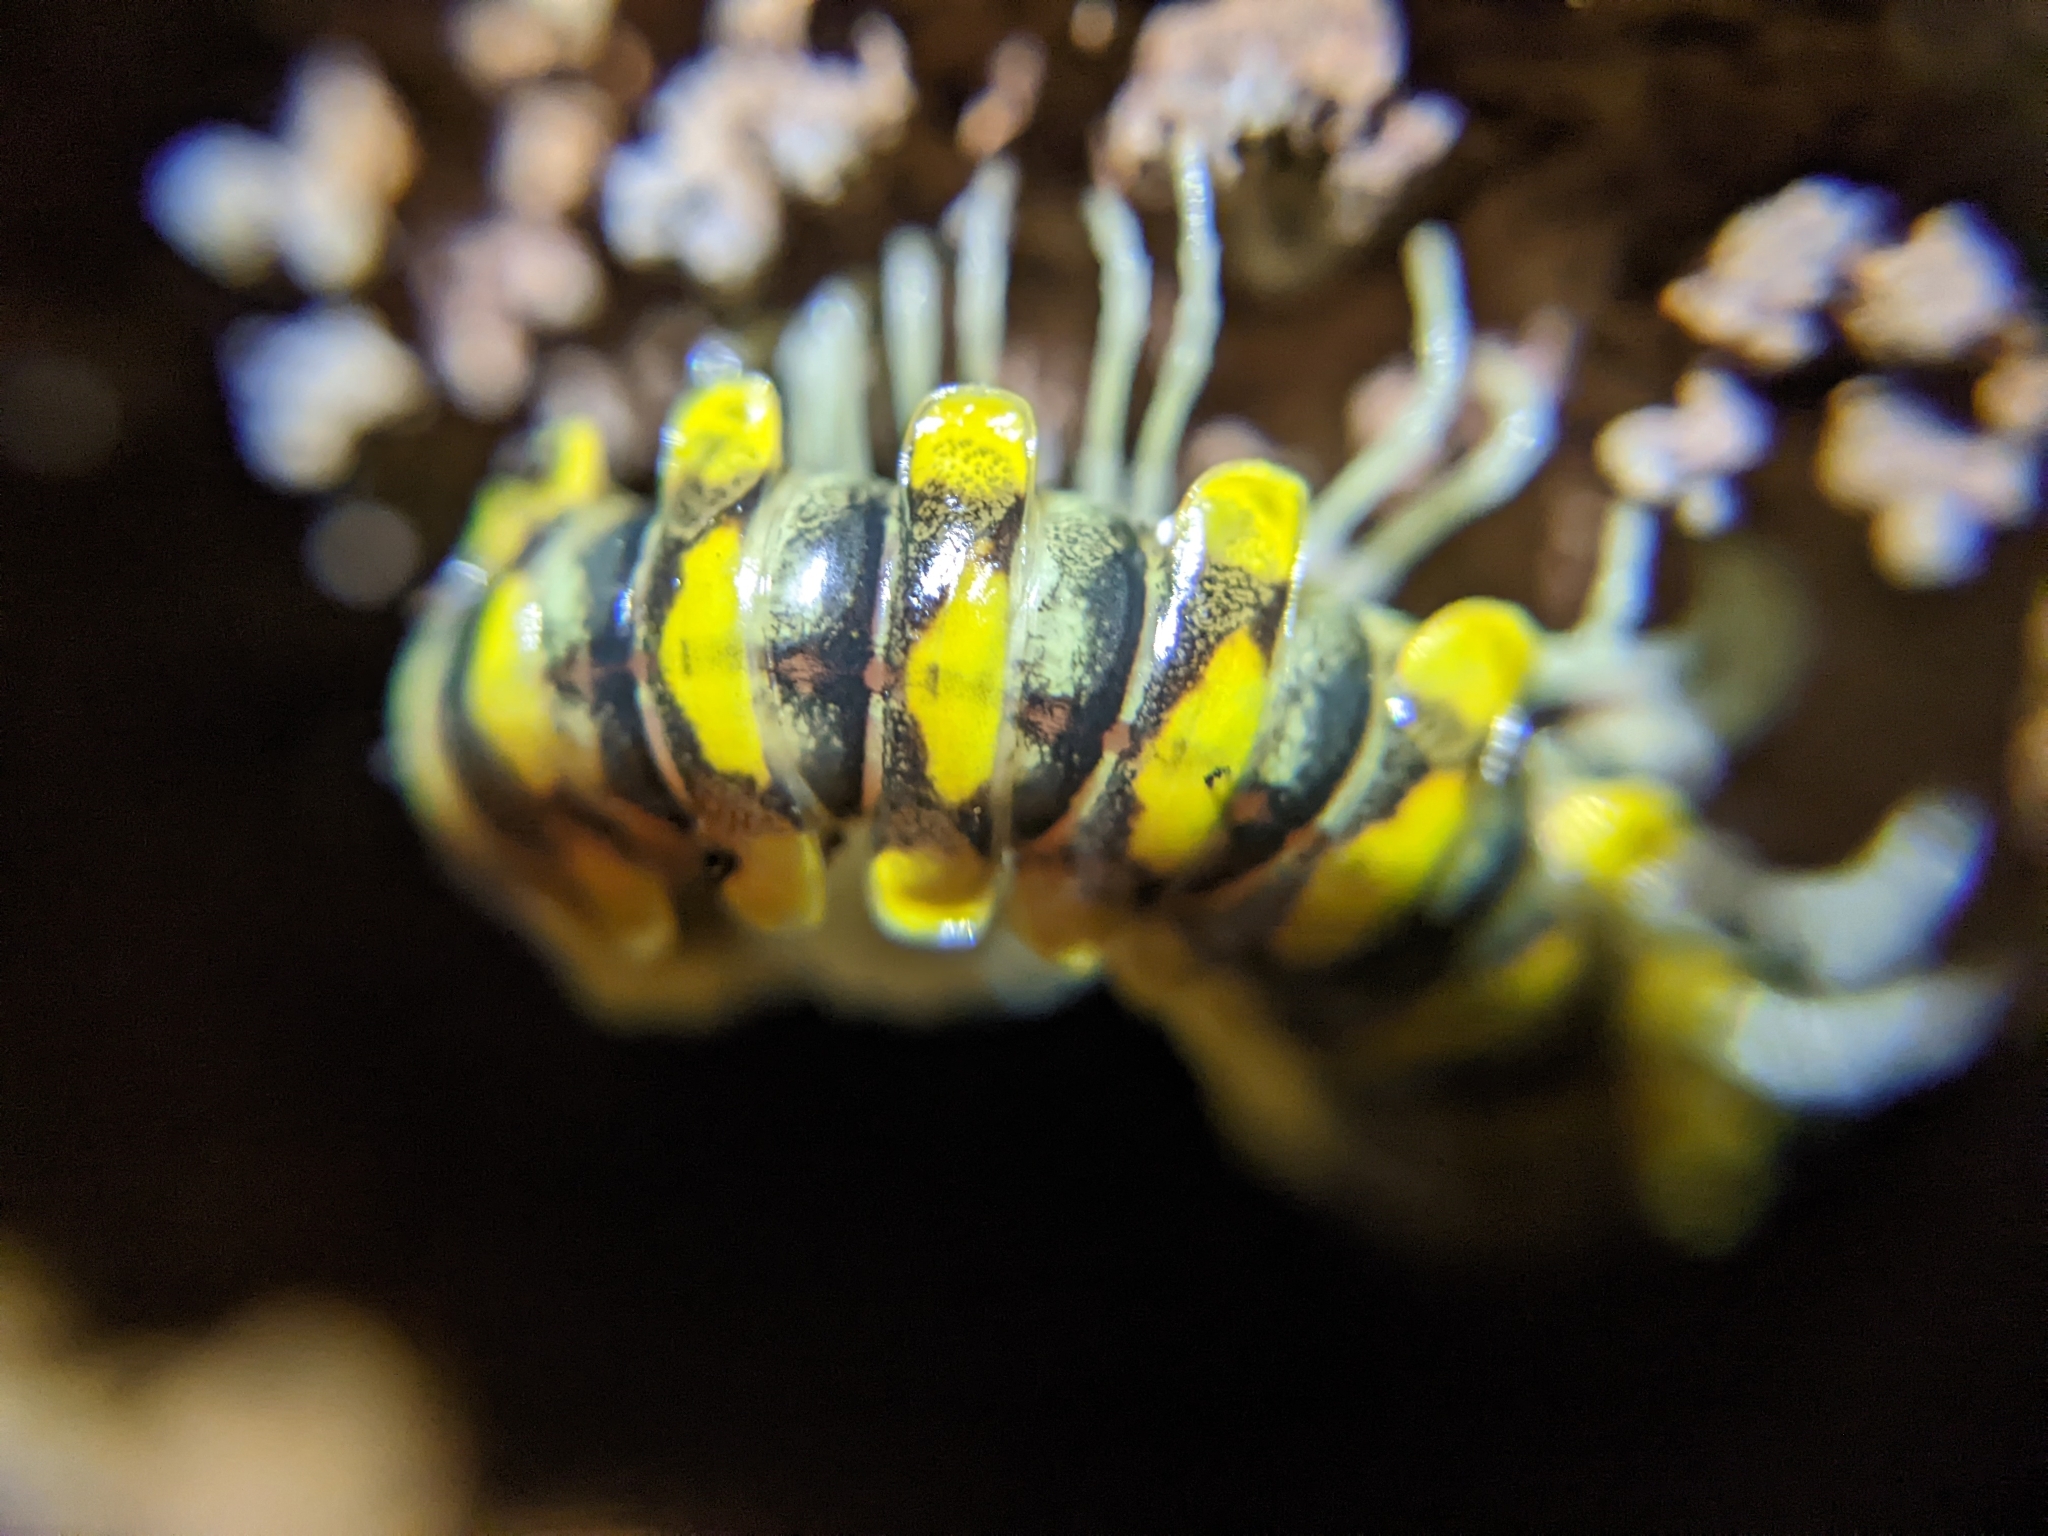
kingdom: Animalia
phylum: Arthropoda
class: Diplopoda
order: Polydesmida
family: Xystodesmidae
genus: Sigmocheir
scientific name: Sigmocheir calaveras
